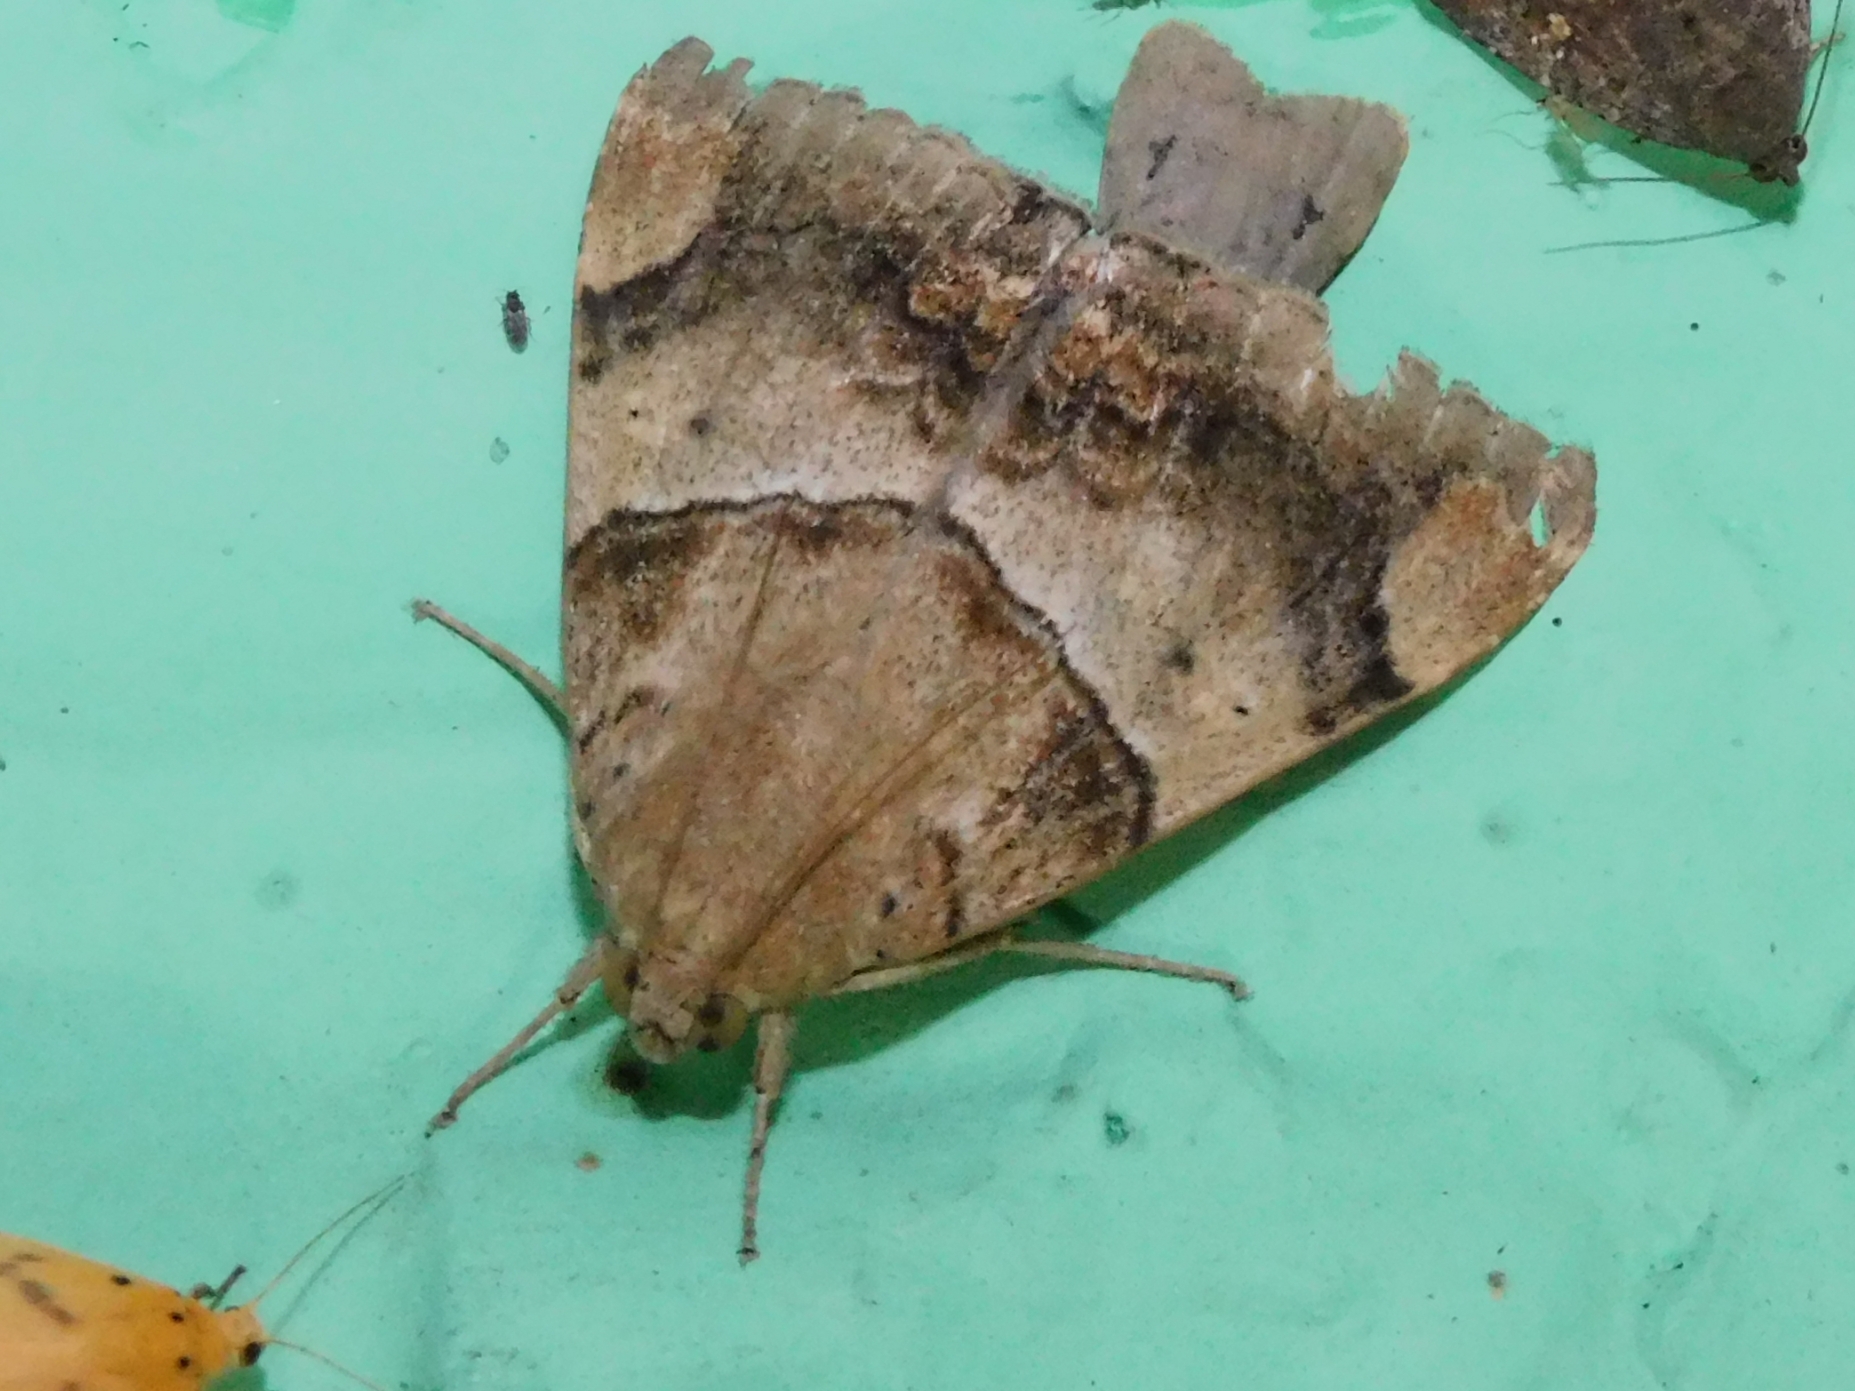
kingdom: Animalia
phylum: Arthropoda
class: Insecta
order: Lepidoptera
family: Erebidae
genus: Achaea
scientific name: Achaea janata
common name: Croton caterpillar
